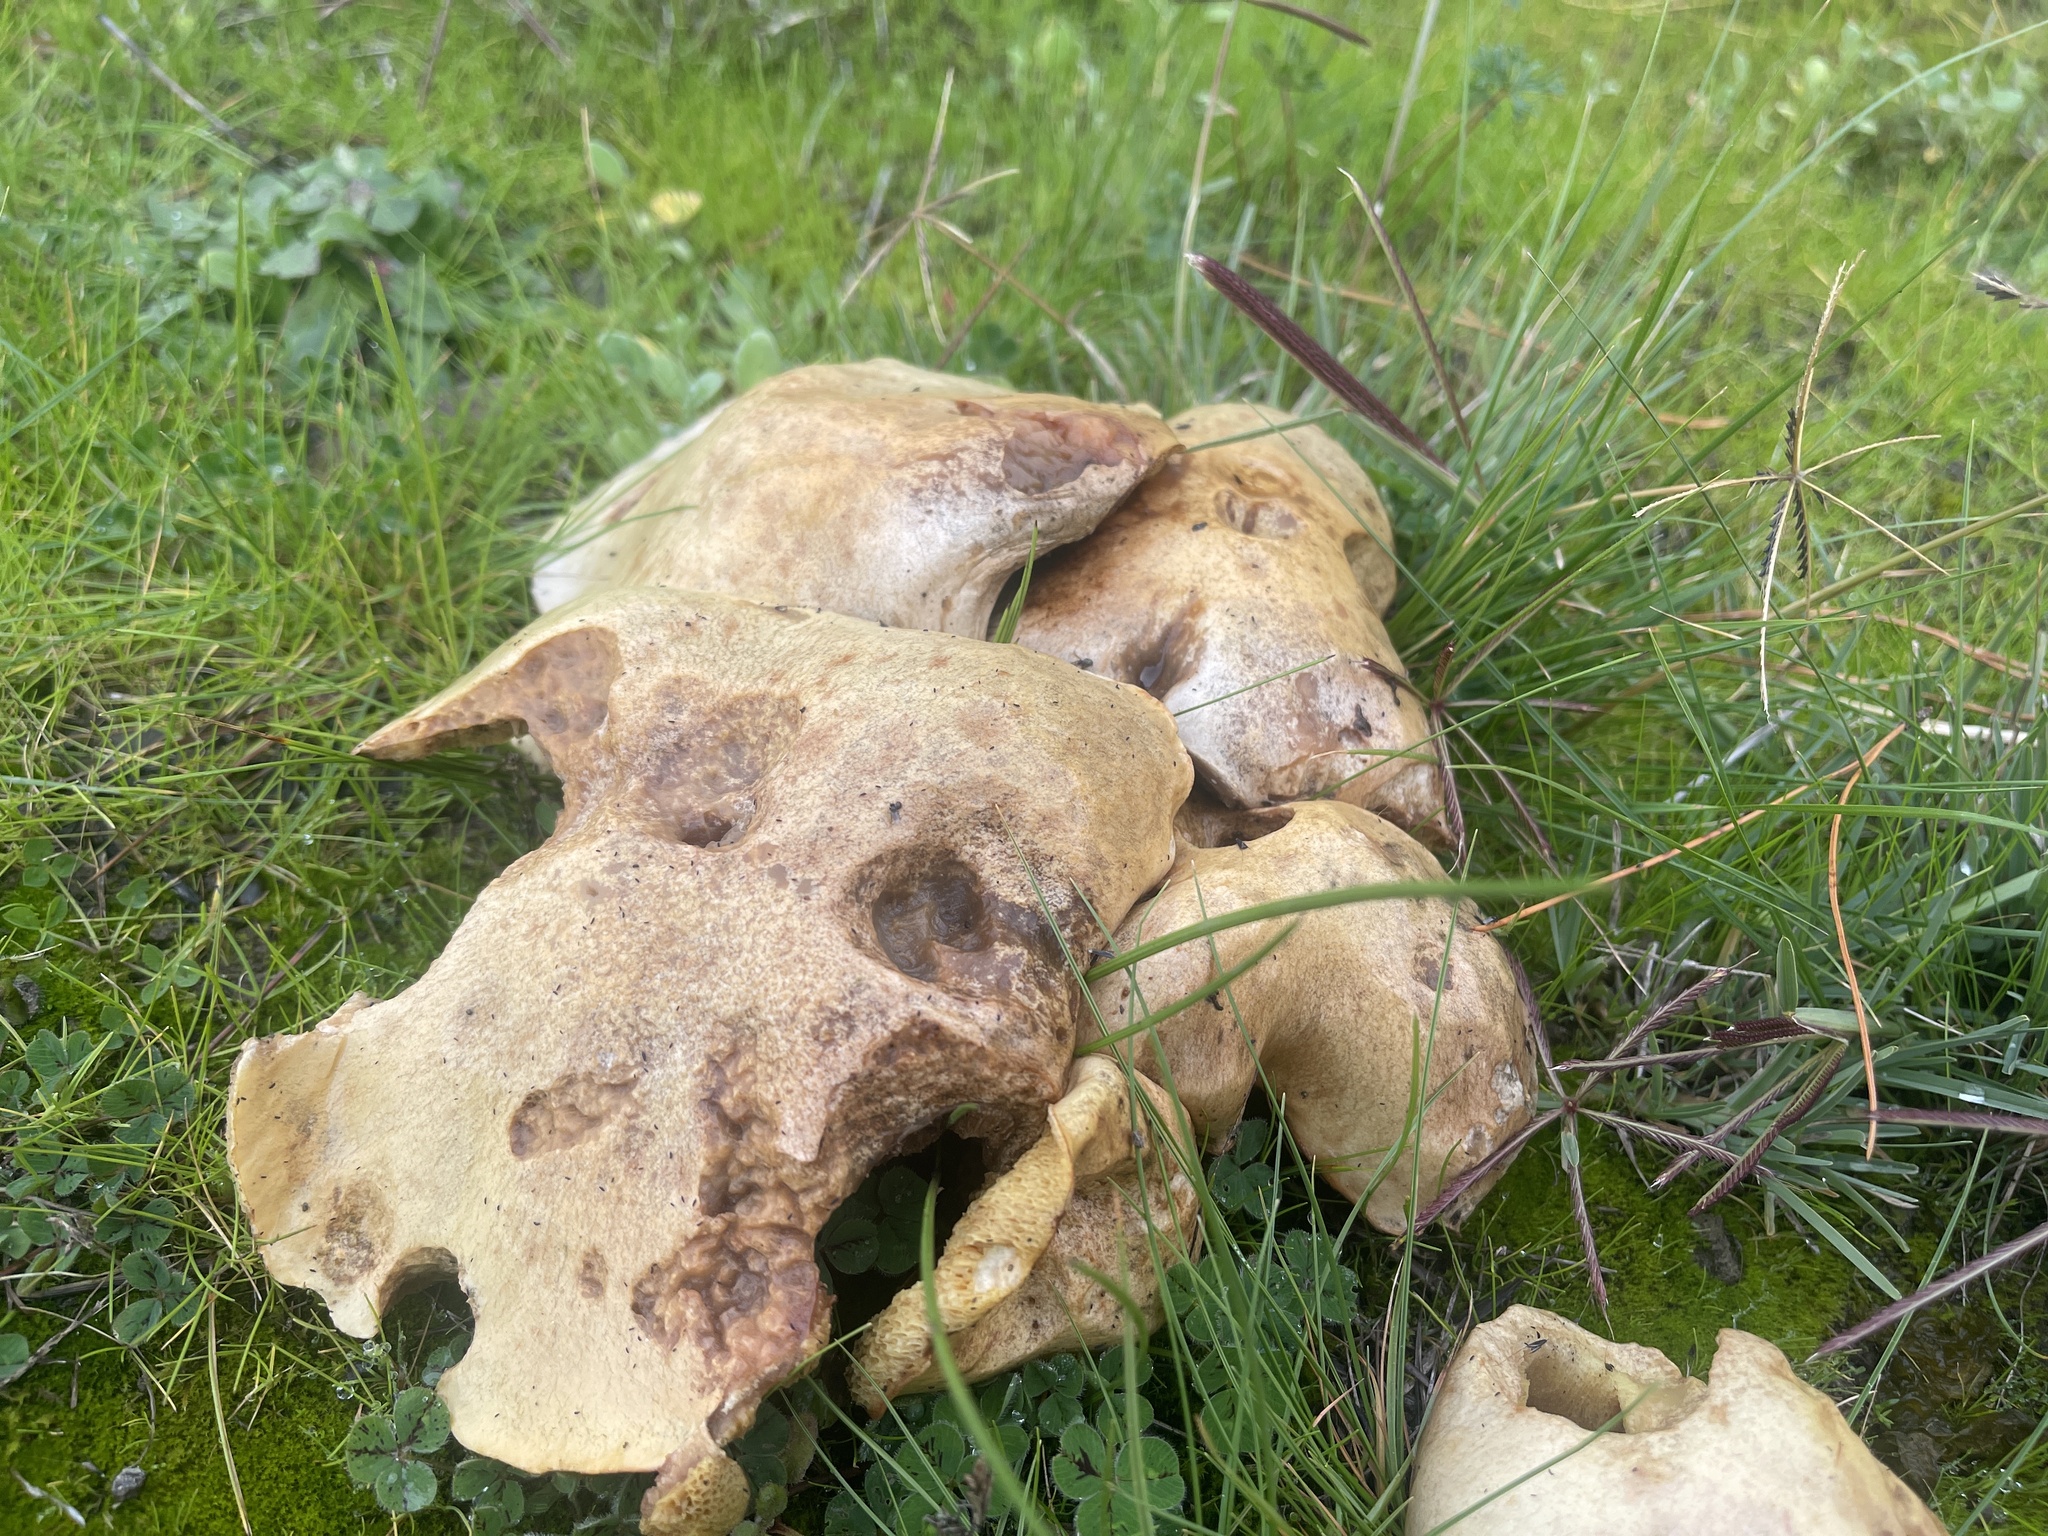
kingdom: Fungi
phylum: Basidiomycota
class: Agaricomycetes
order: Boletales
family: Boletinellaceae
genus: Phlebopus
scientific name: Phlebopus marginatus
